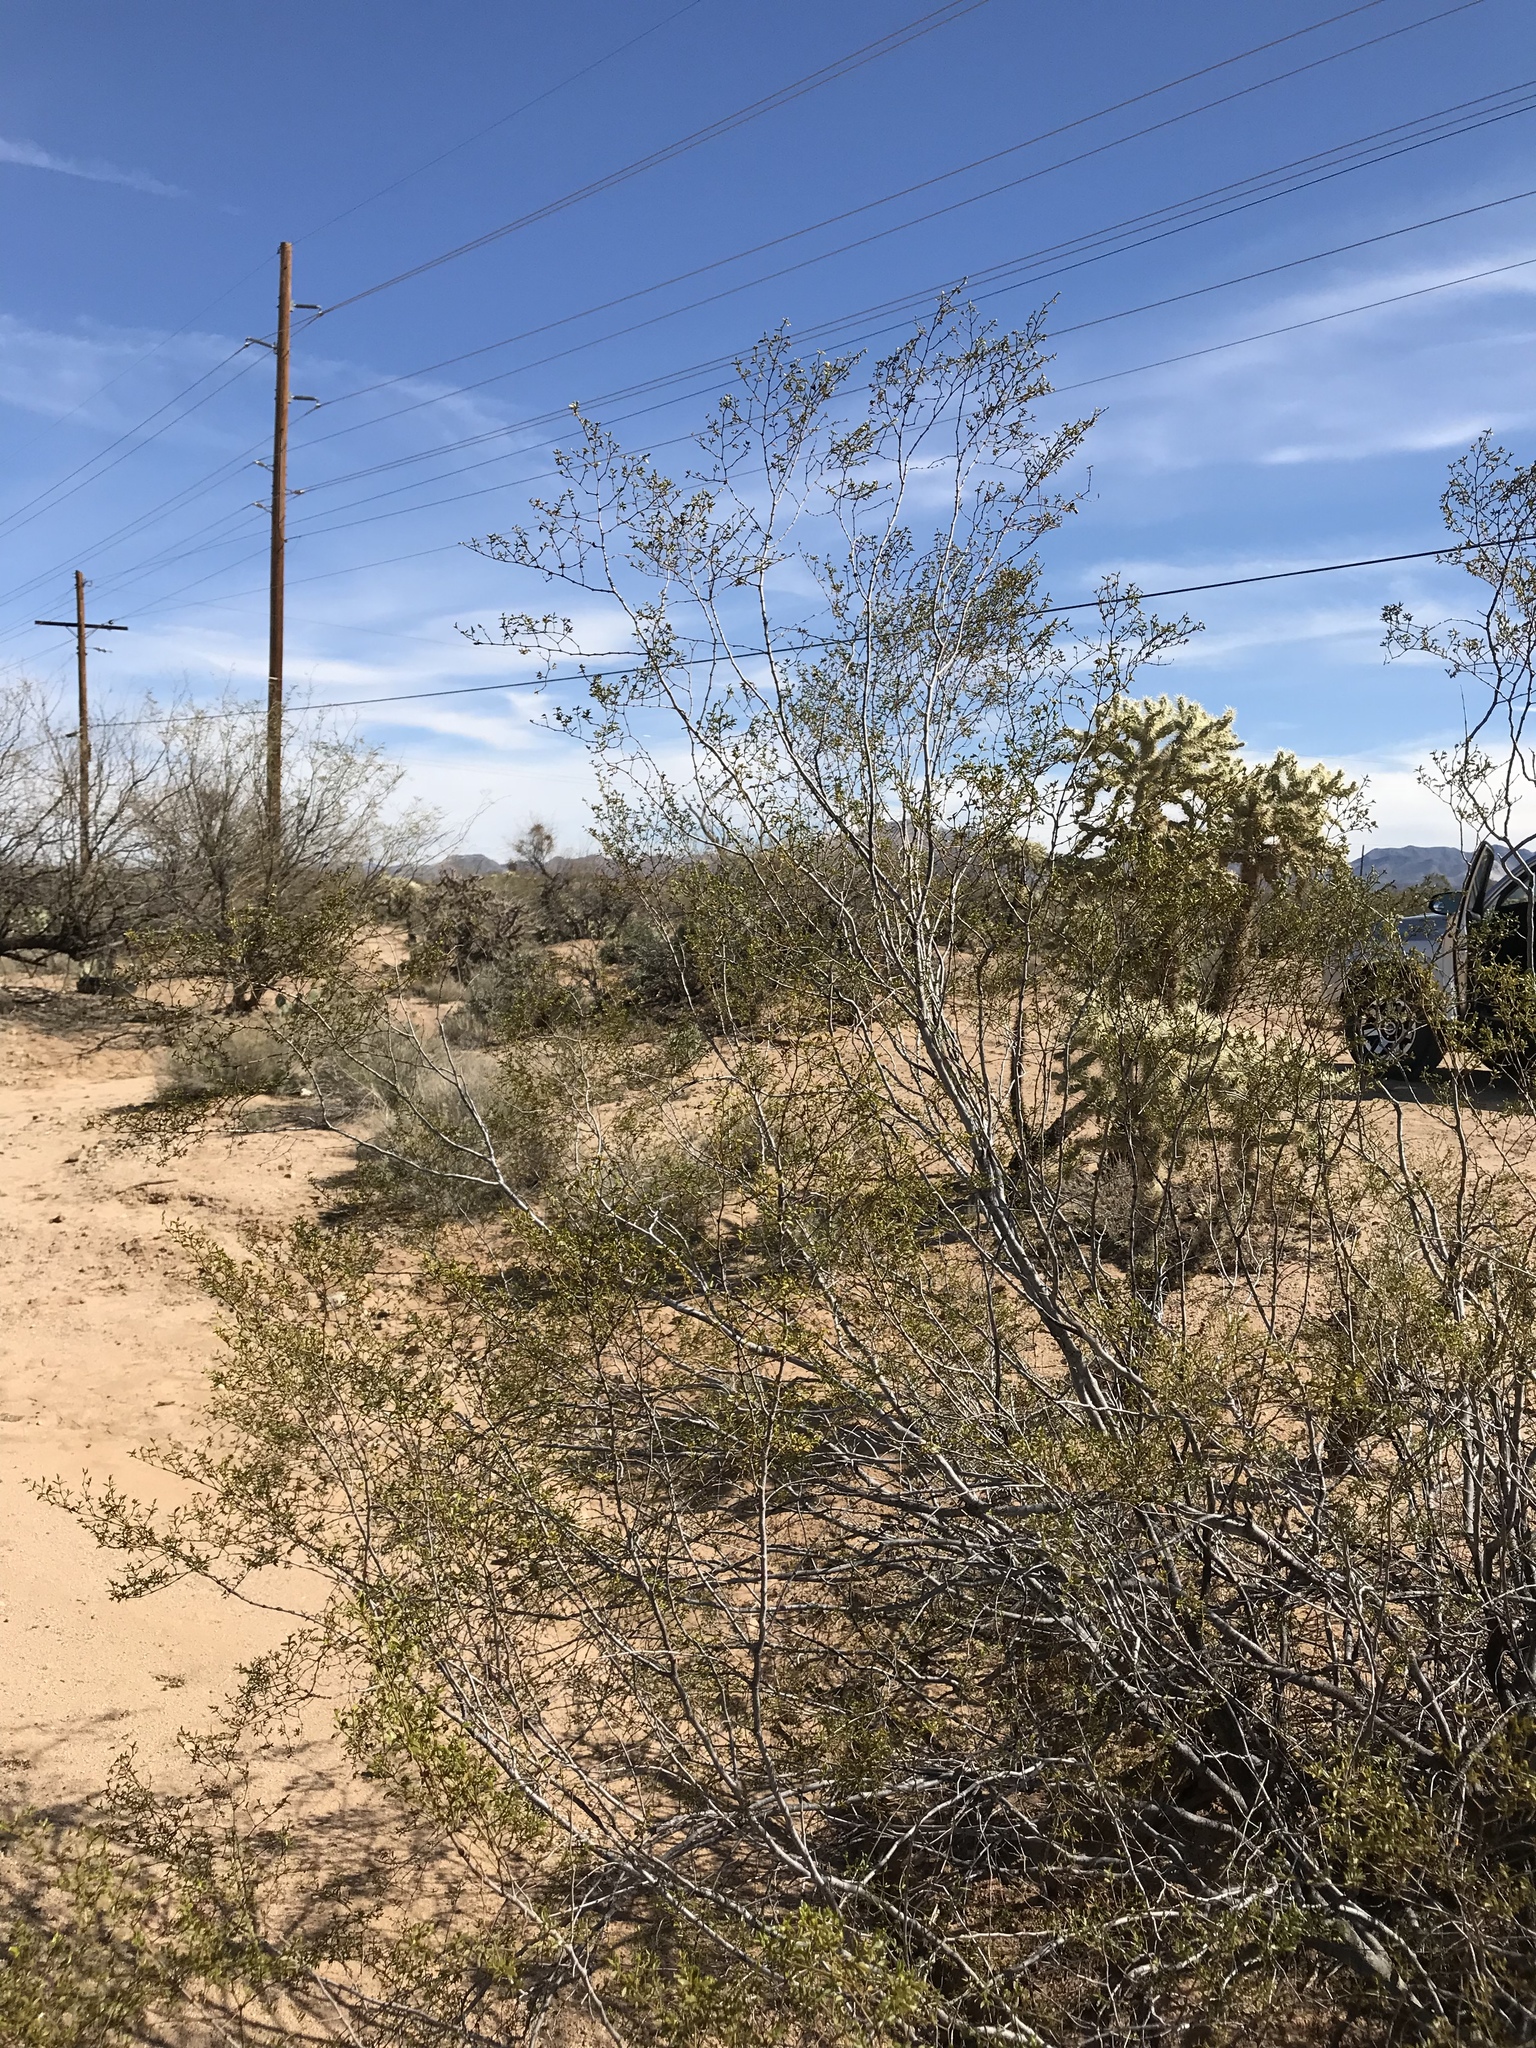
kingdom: Plantae
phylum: Tracheophyta
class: Magnoliopsida
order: Zygophyllales
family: Zygophyllaceae
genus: Larrea
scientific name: Larrea tridentata
